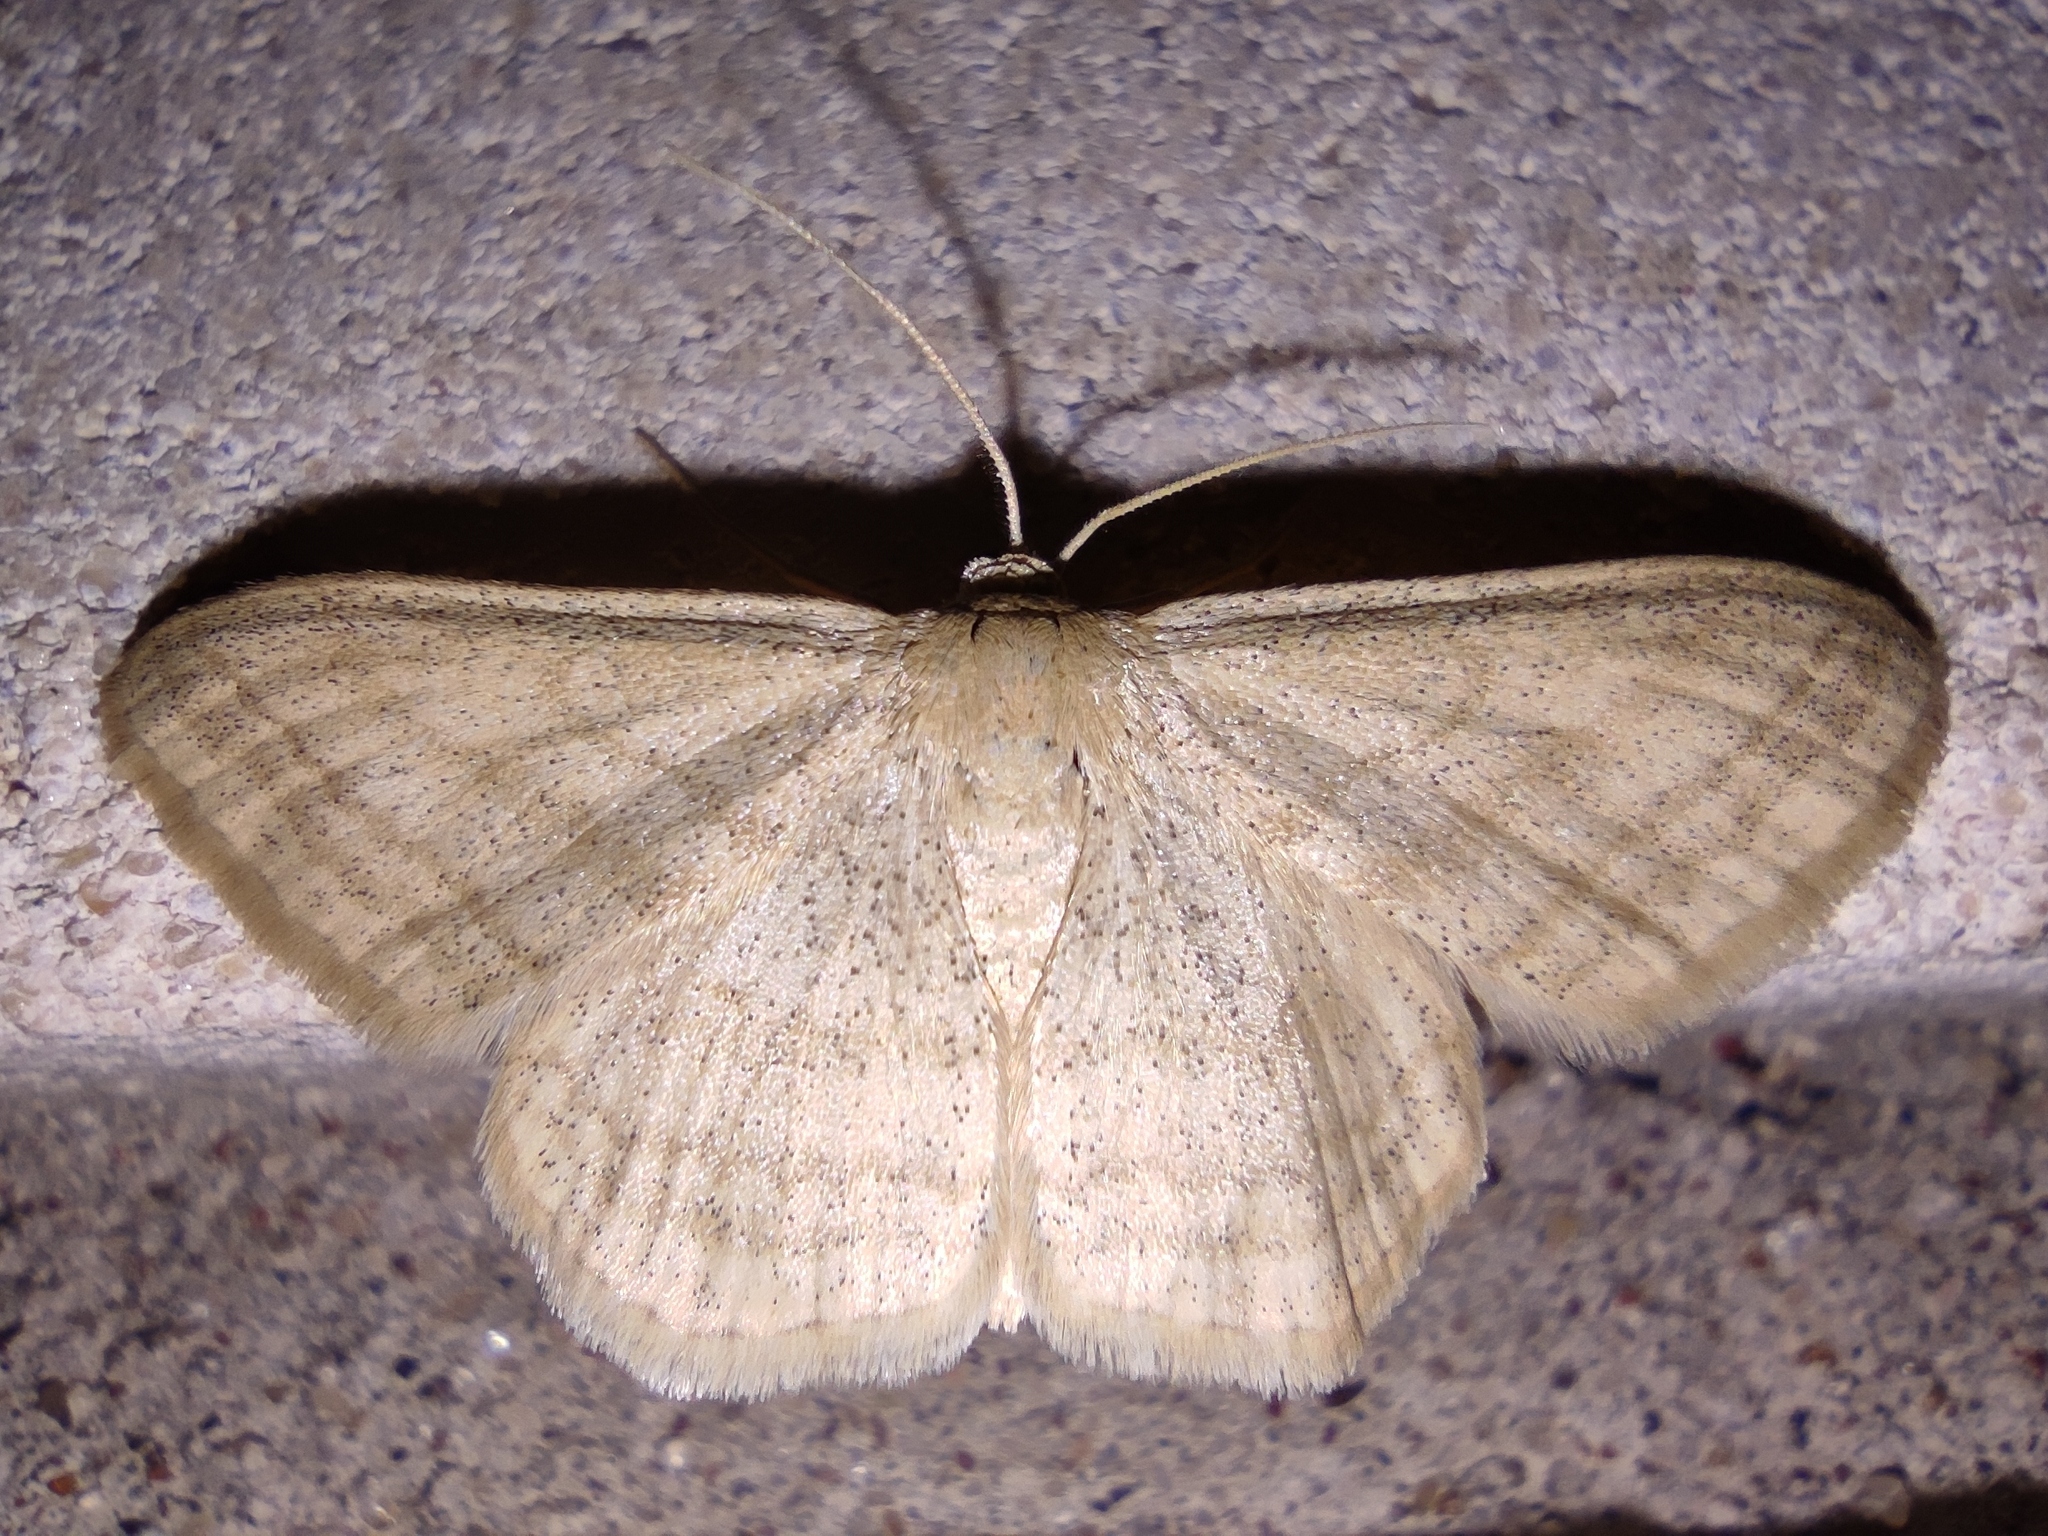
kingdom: Animalia
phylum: Arthropoda
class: Insecta
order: Lepidoptera
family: Geometridae
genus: Scopula
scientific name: Scopula virgulata
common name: Streaked wave
